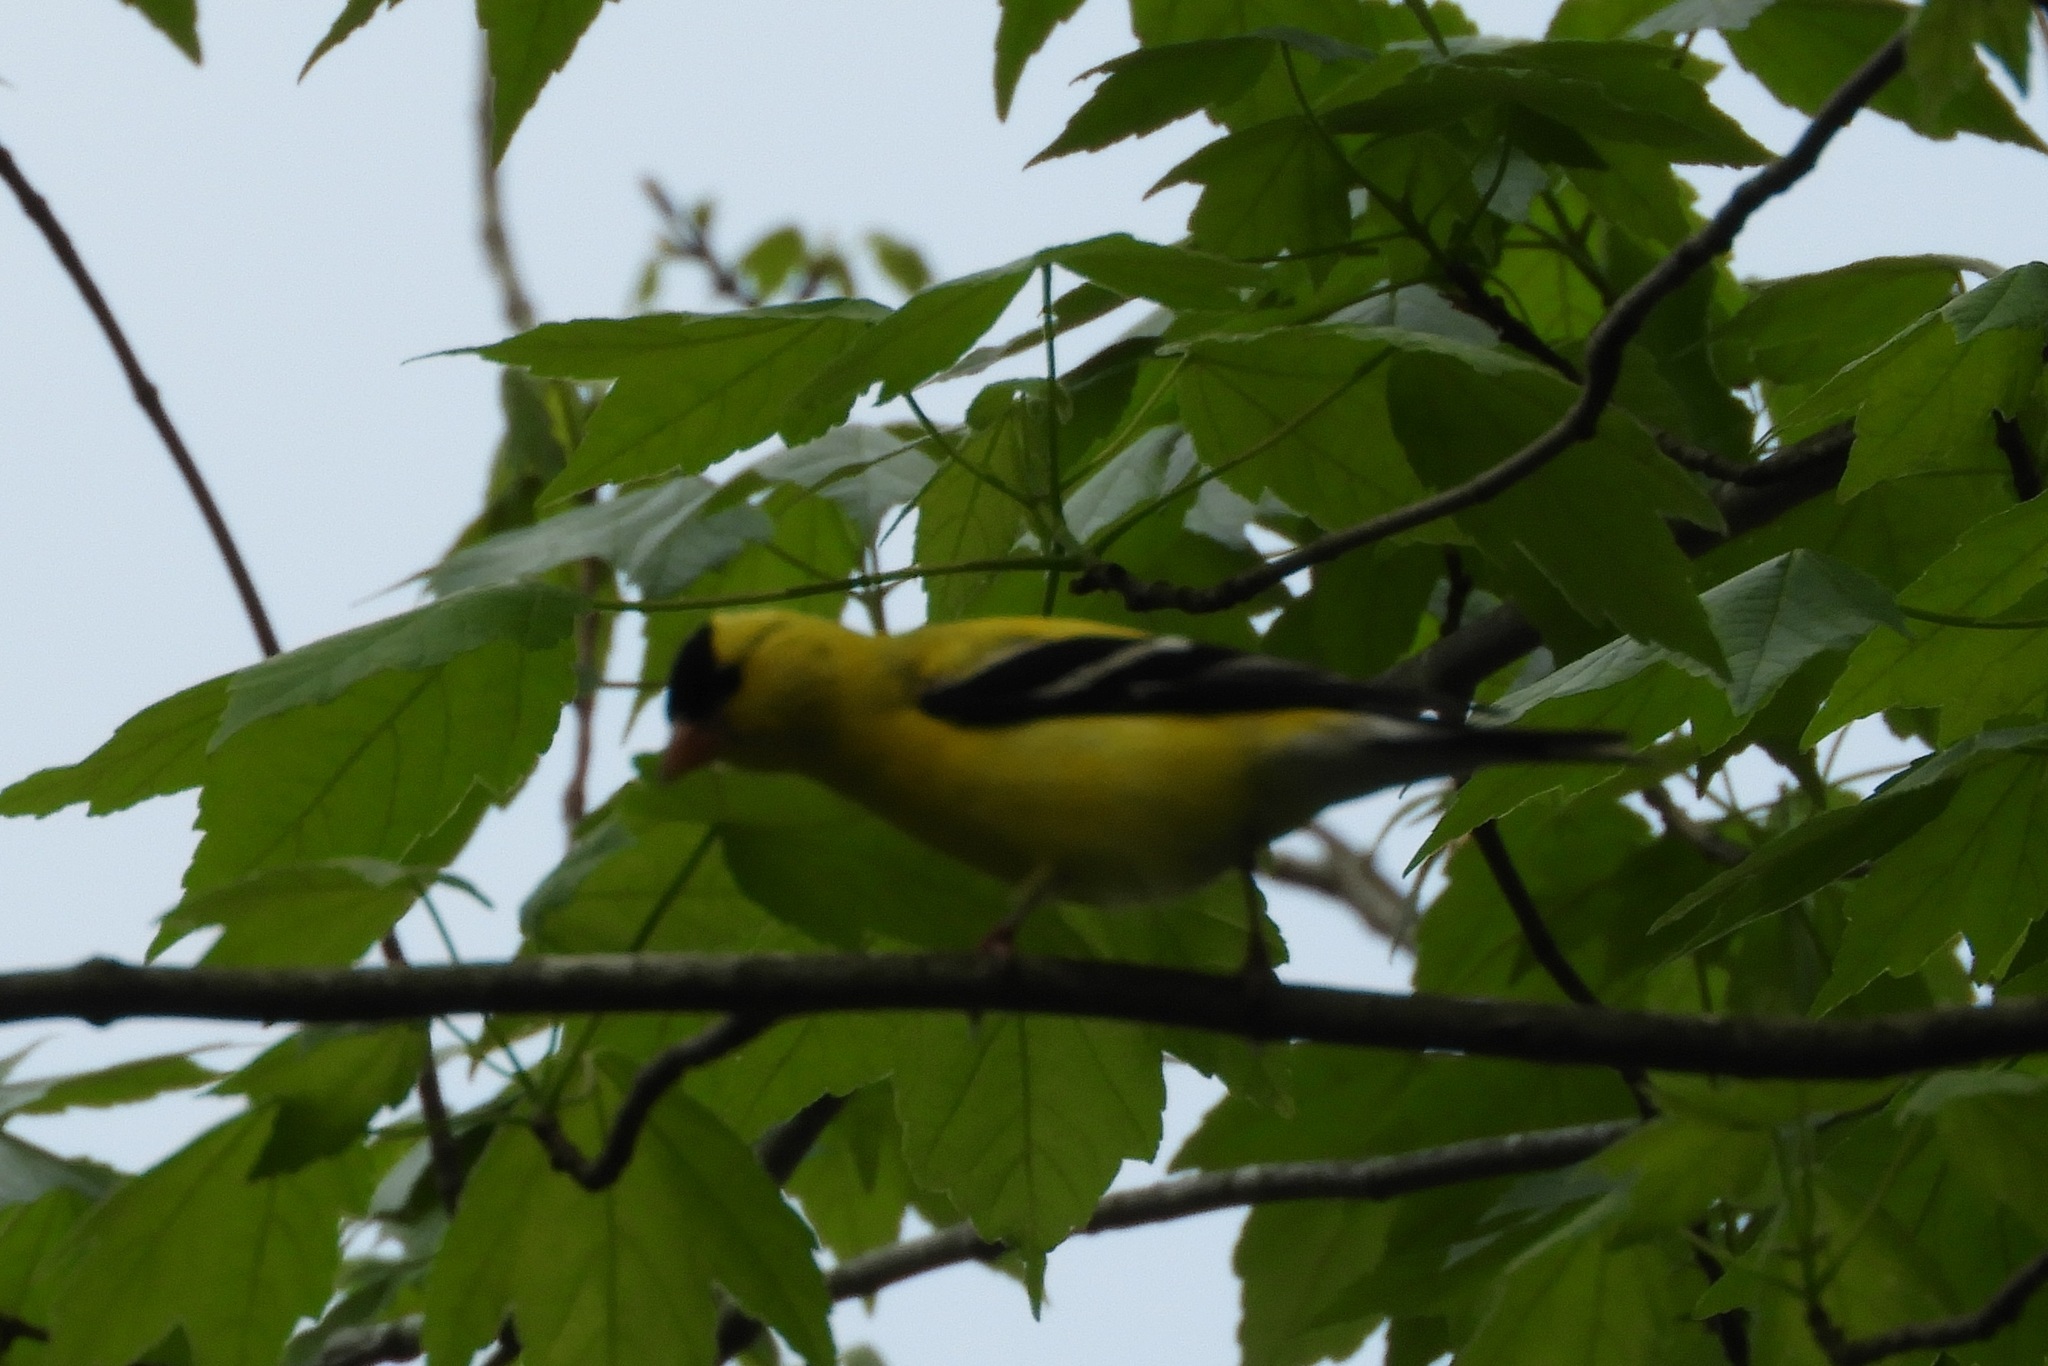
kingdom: Animalia
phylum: Chordata
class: Aves
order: Passeriformes
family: Fringillidae
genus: Spinus
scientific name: Spinus tristis
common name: American goldfinch
